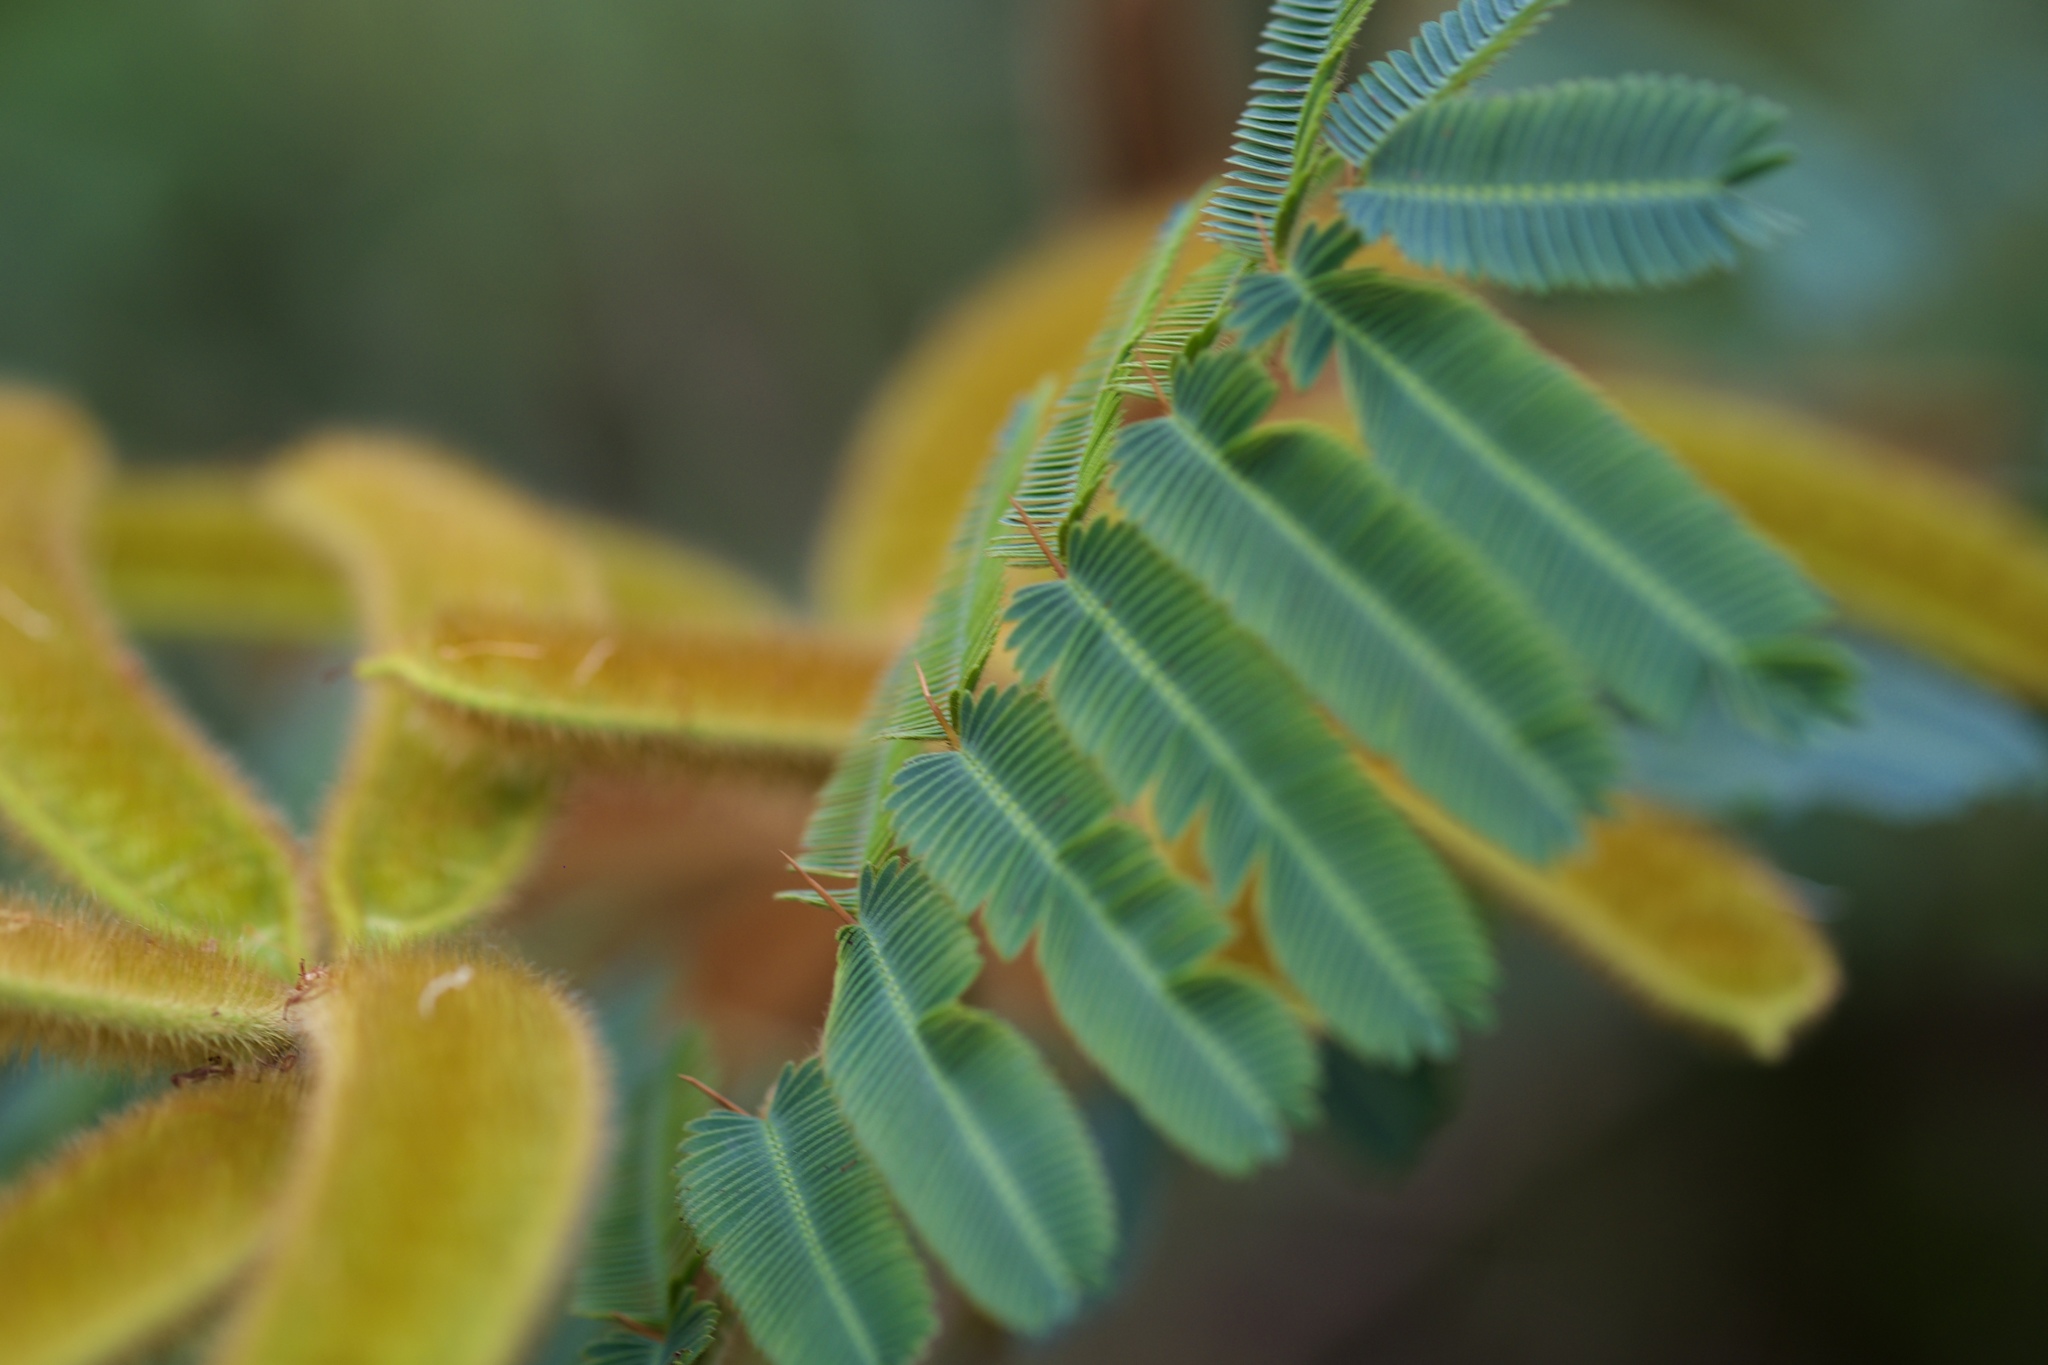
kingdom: Plantae
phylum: Tracheophyta
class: Magnoliopsida
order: Fabales
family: Fabaceae
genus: Mimosa
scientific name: Mimosa pigra
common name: Black mimosa
